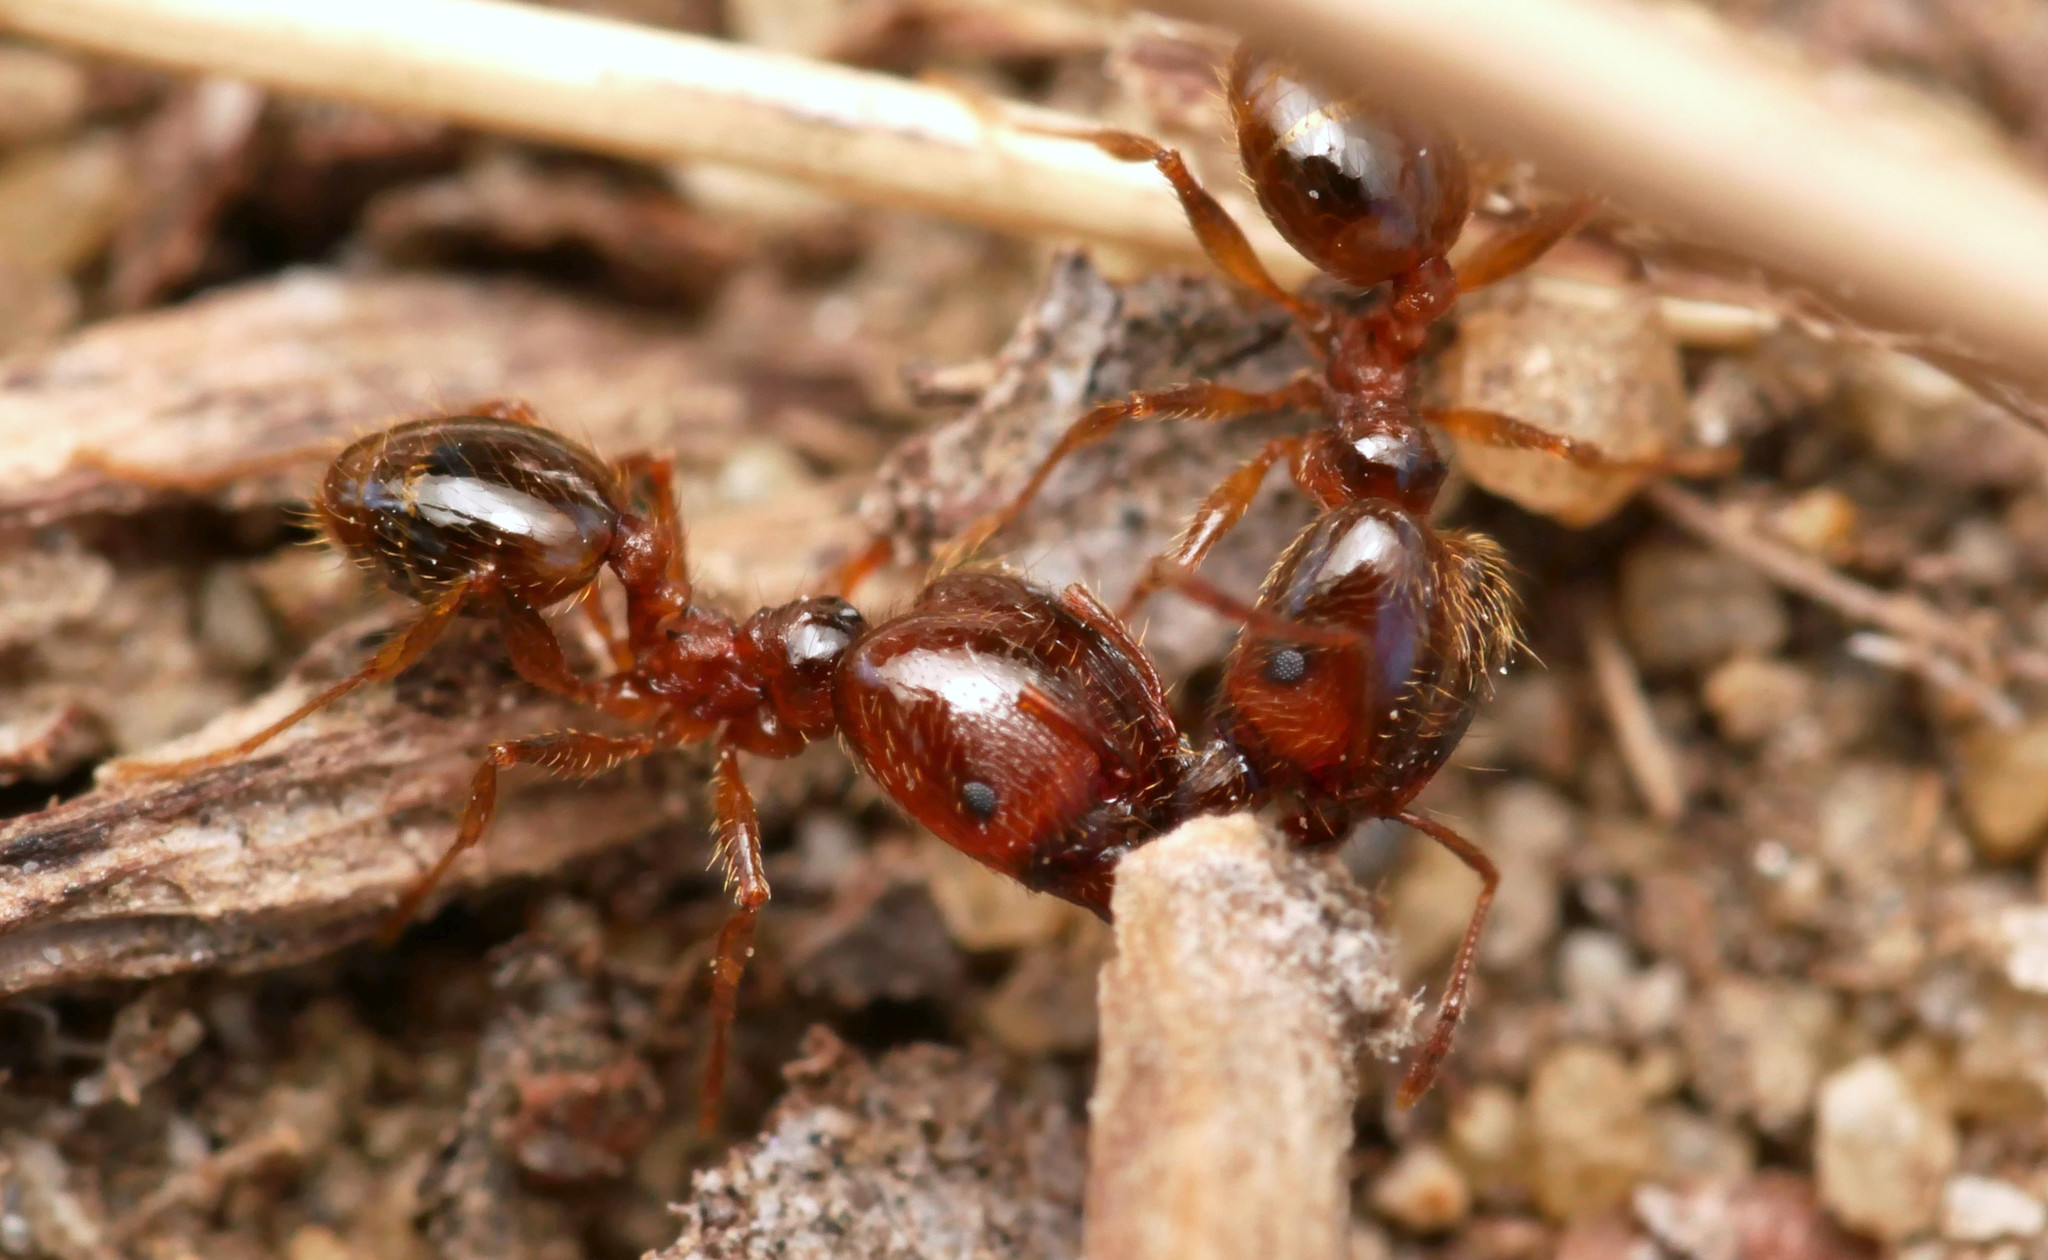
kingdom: Animalia
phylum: Arthropoda
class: Insecta
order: Hymenoptera
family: Formicidae
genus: Pheidole
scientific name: Pheidole pallidula
